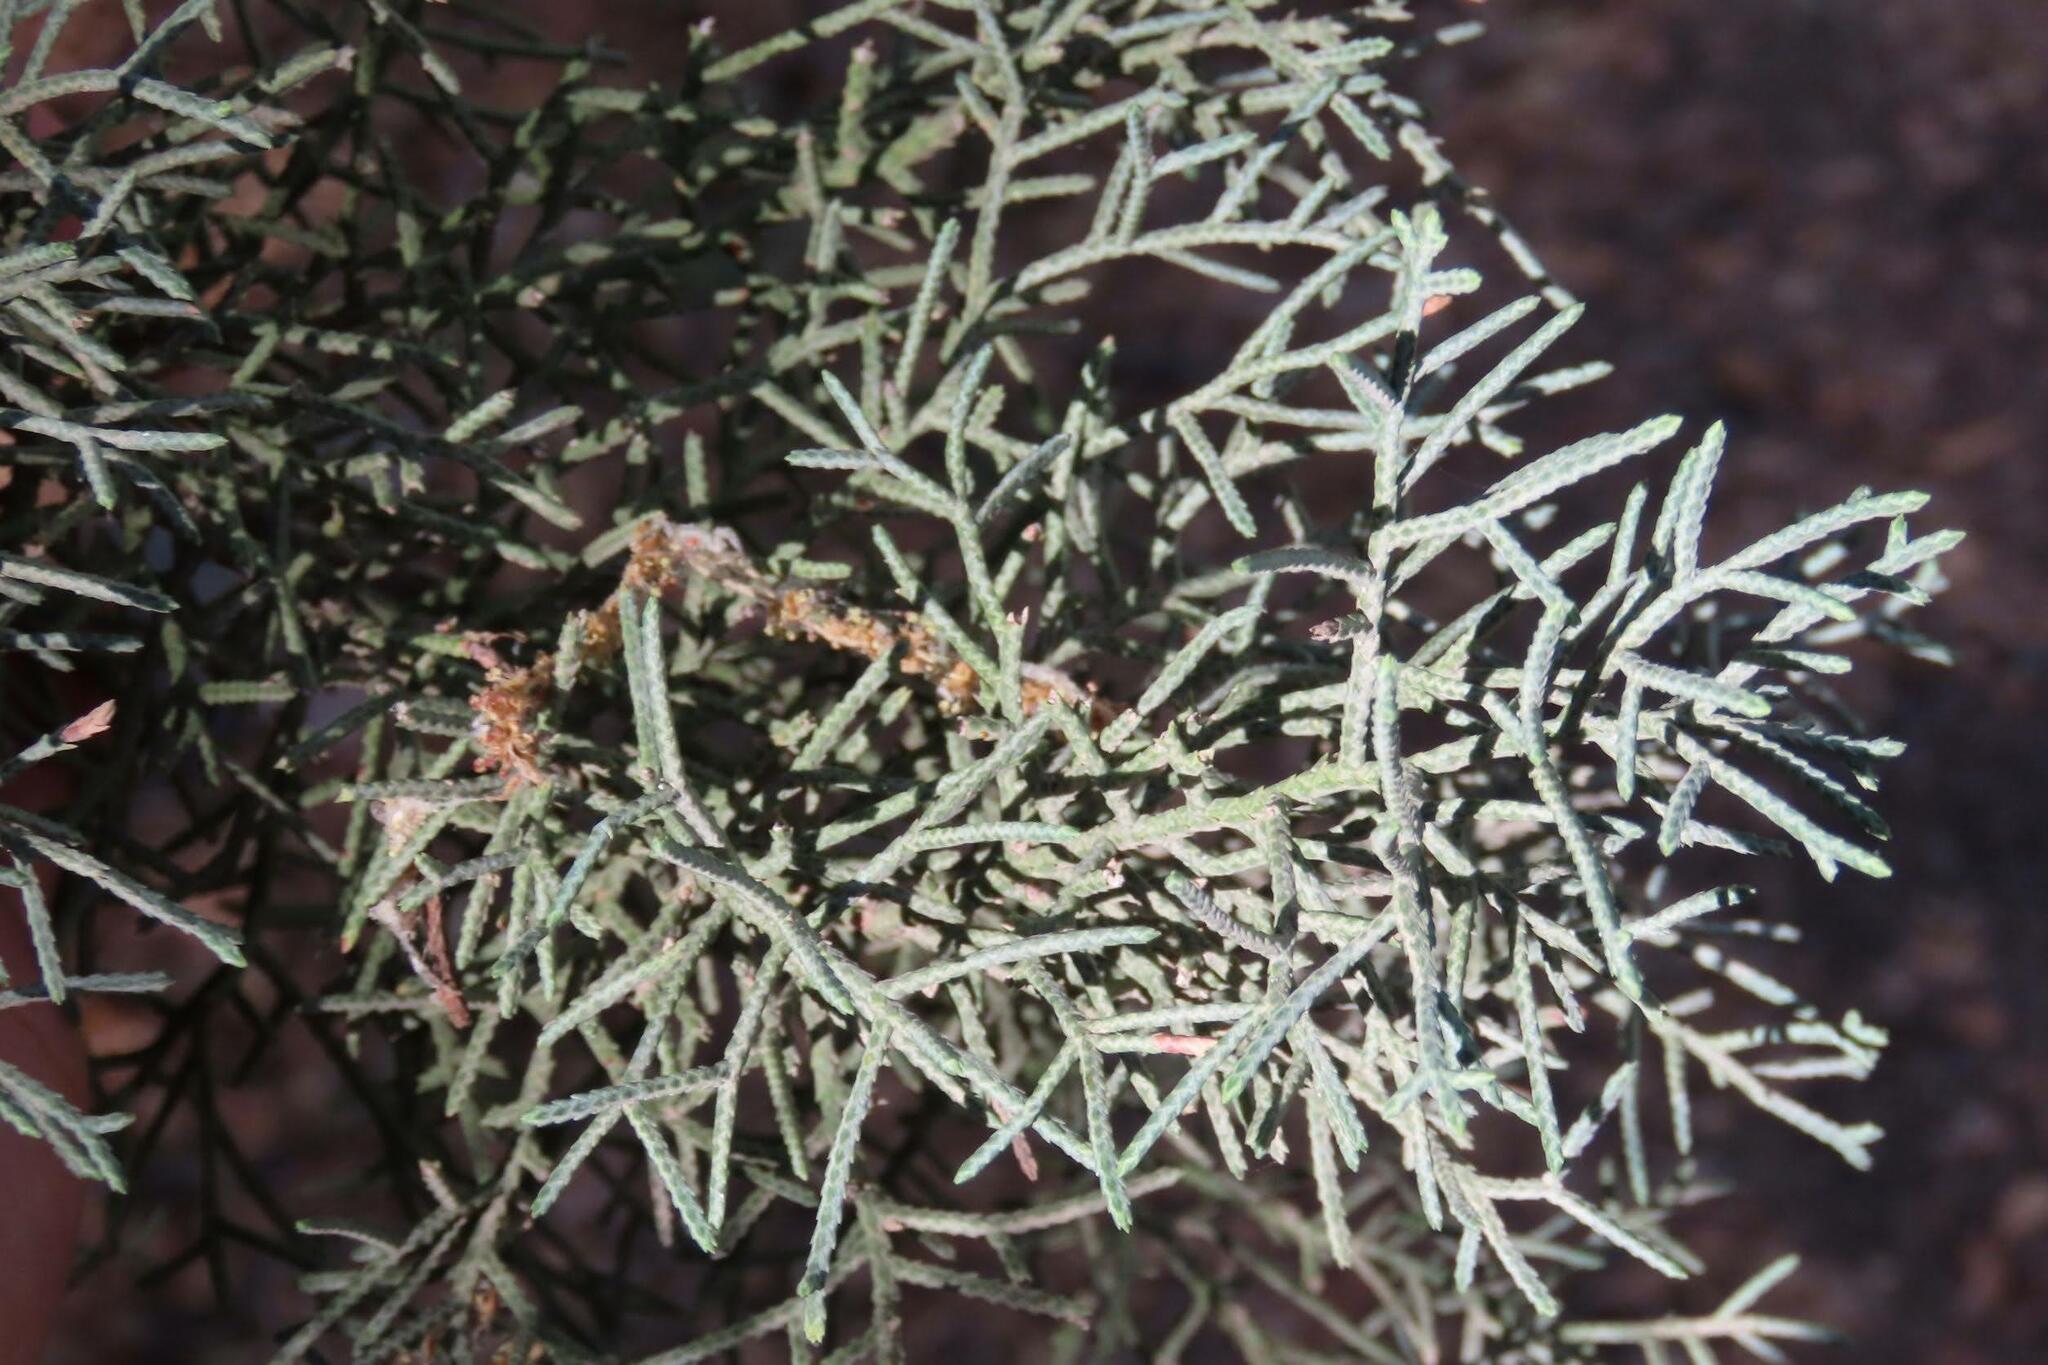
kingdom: Plantae
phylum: Tracheophyta
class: Pinopsida
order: Pinales
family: Cupressaceae
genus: Cupressus
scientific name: Cupressus arizonica
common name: Arizona cypress
